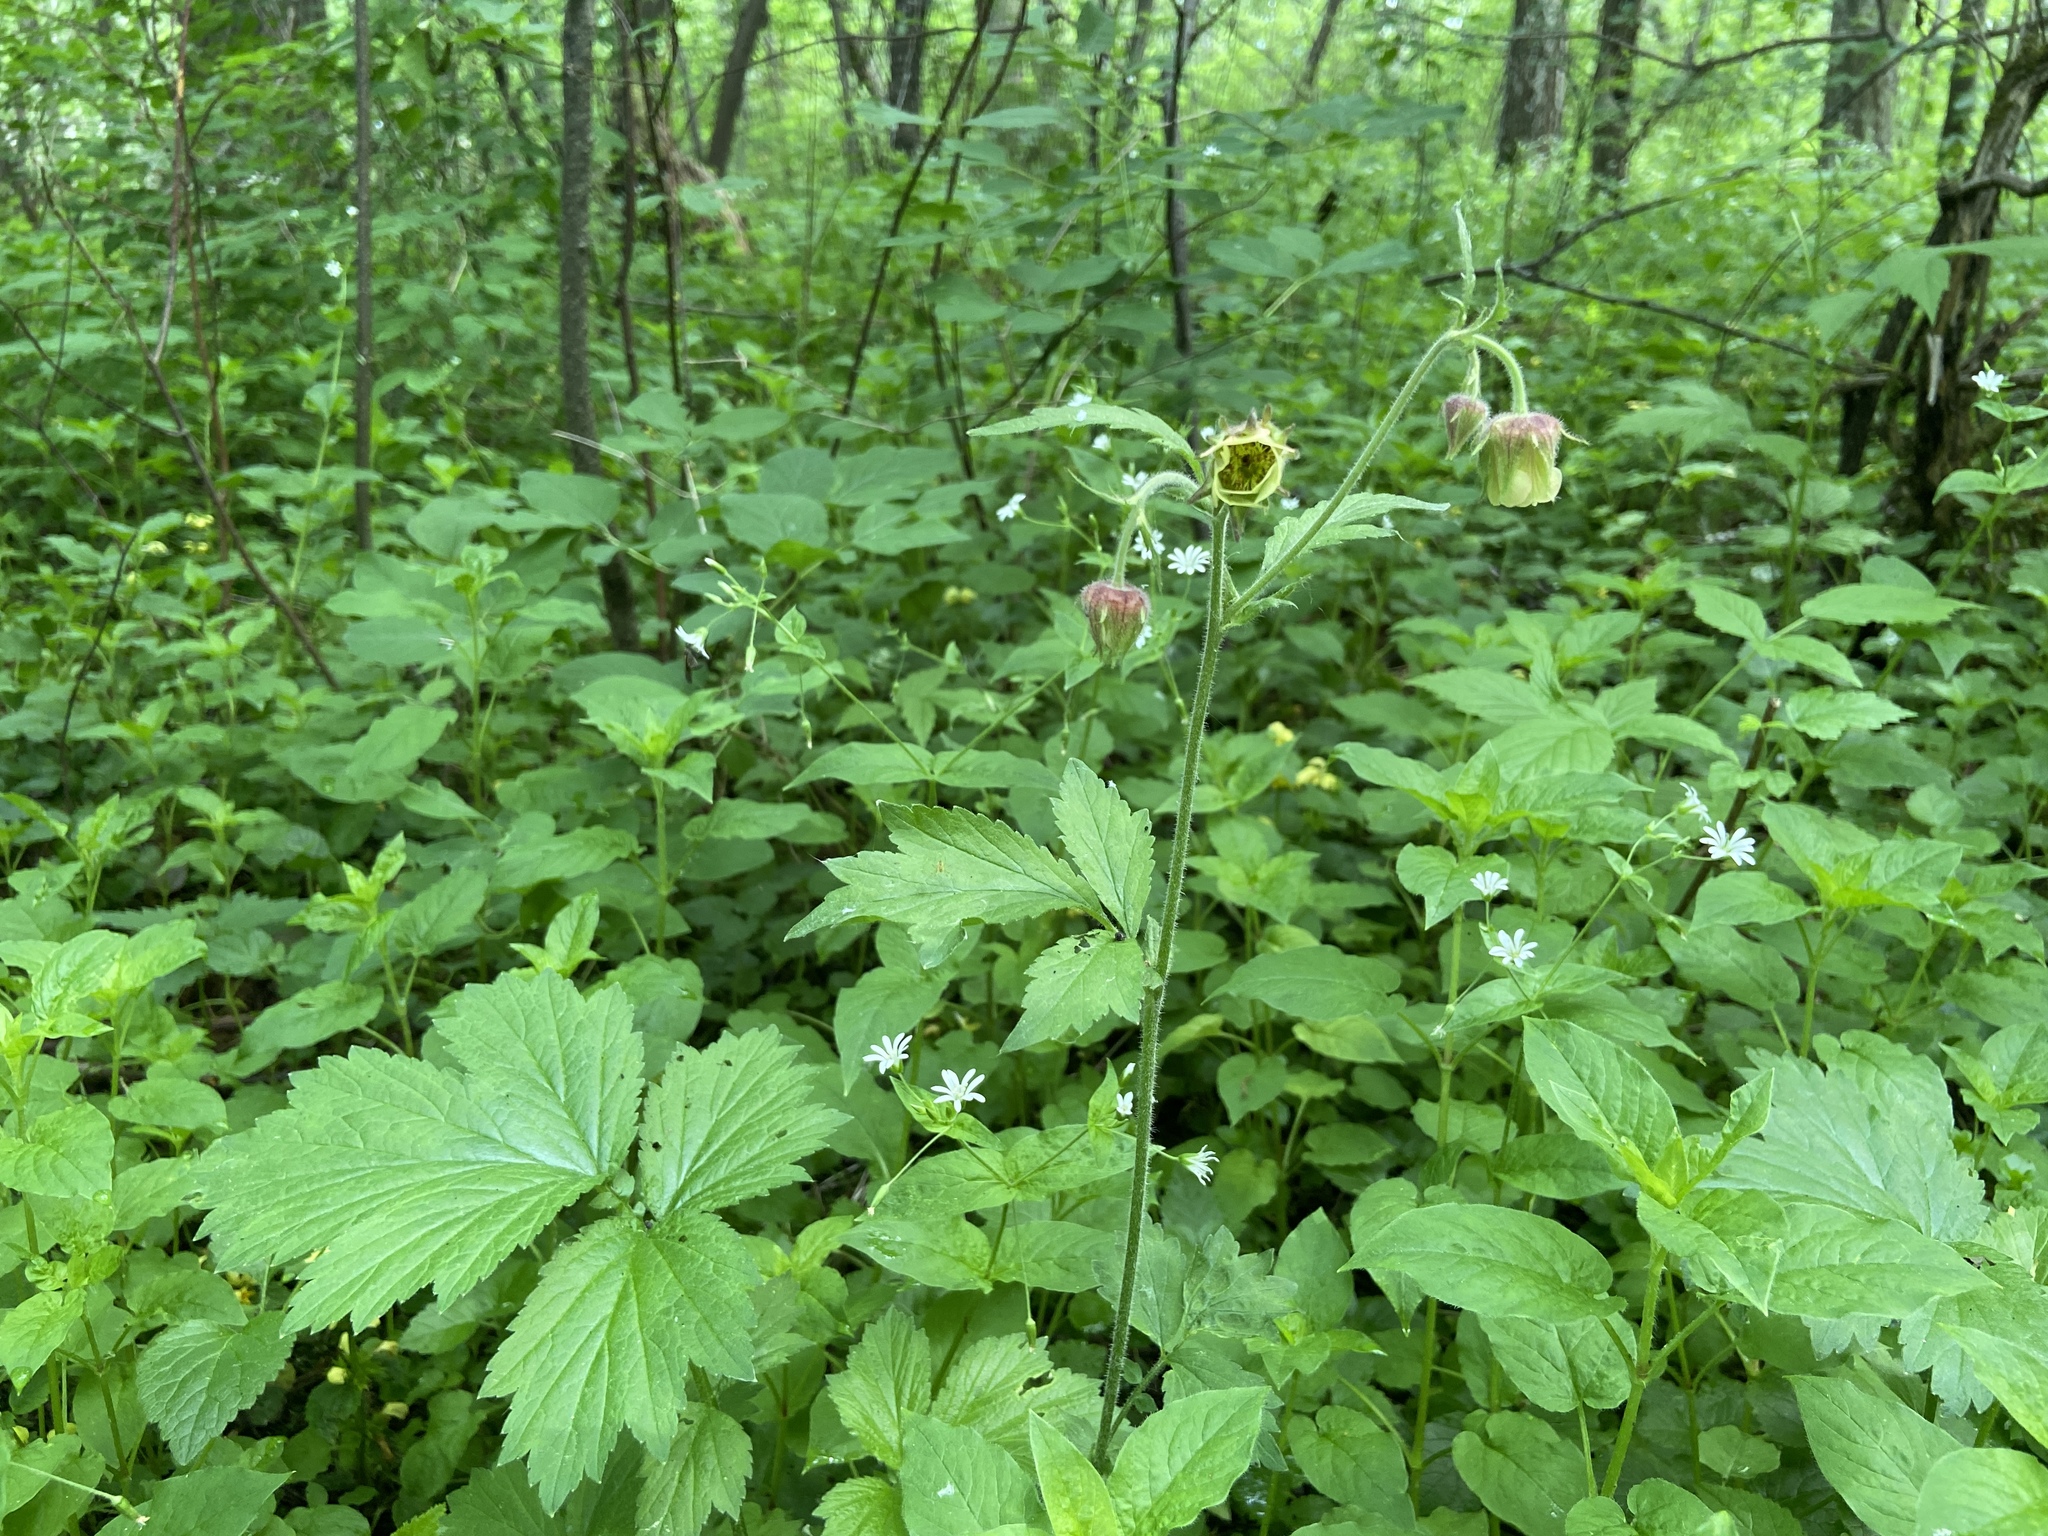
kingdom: Plantae
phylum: Tracheophyta
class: Magnoliopsida
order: Rosales
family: Rosaceae
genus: Geum
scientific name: Geum rivale
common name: Water avens
